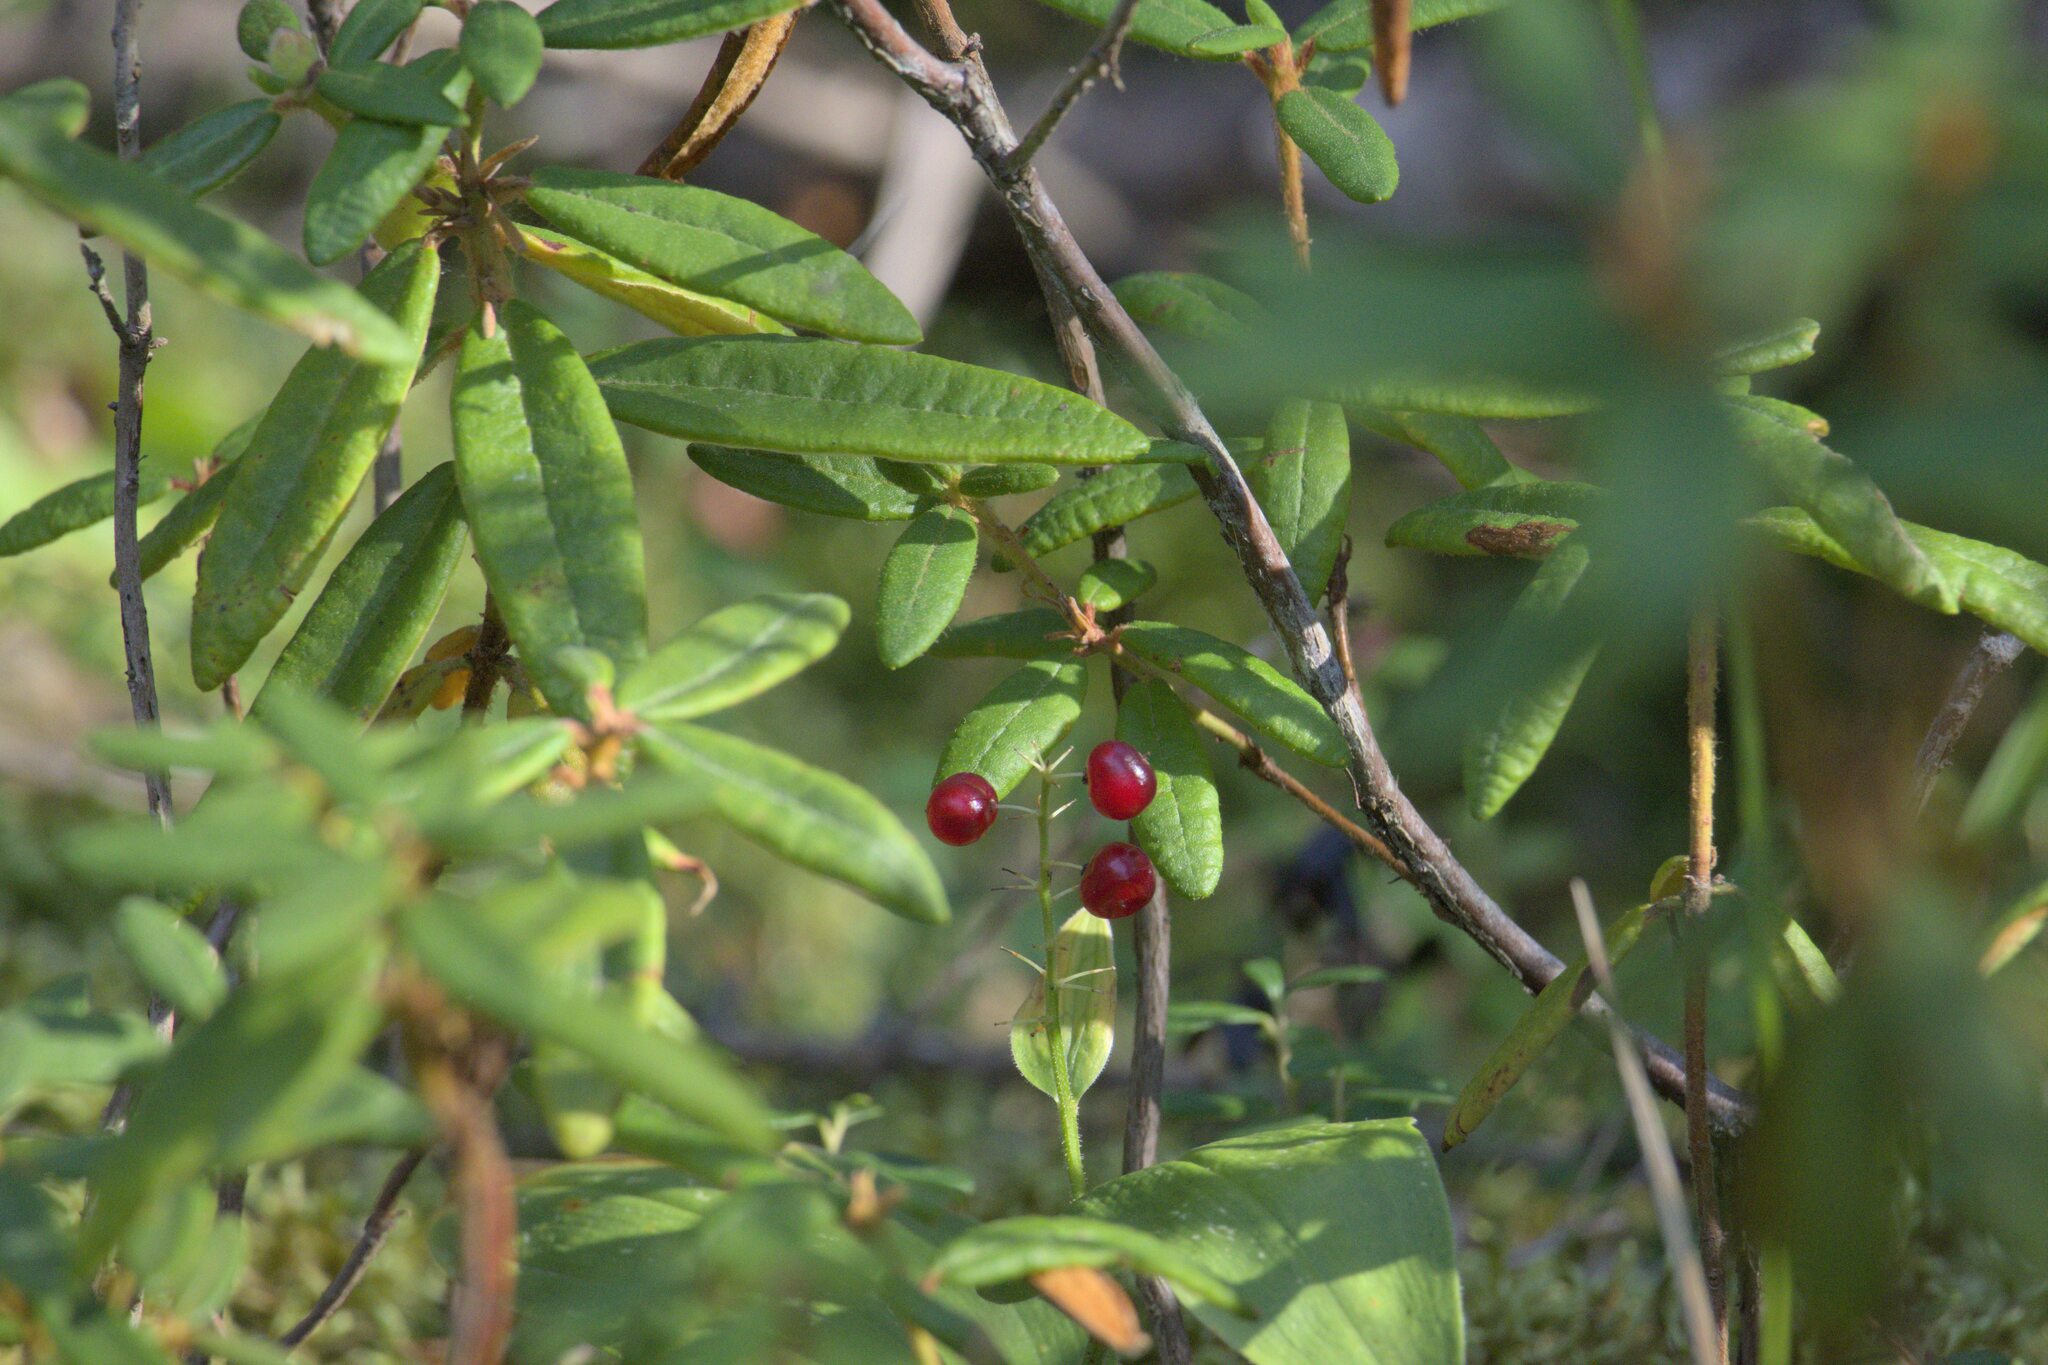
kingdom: Plantae
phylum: Tracheophyta
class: Liliopsida
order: Asparagales
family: Asparagaceae
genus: Maianthemum
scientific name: Maianthemum canadense
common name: False lily-of-the-valley
